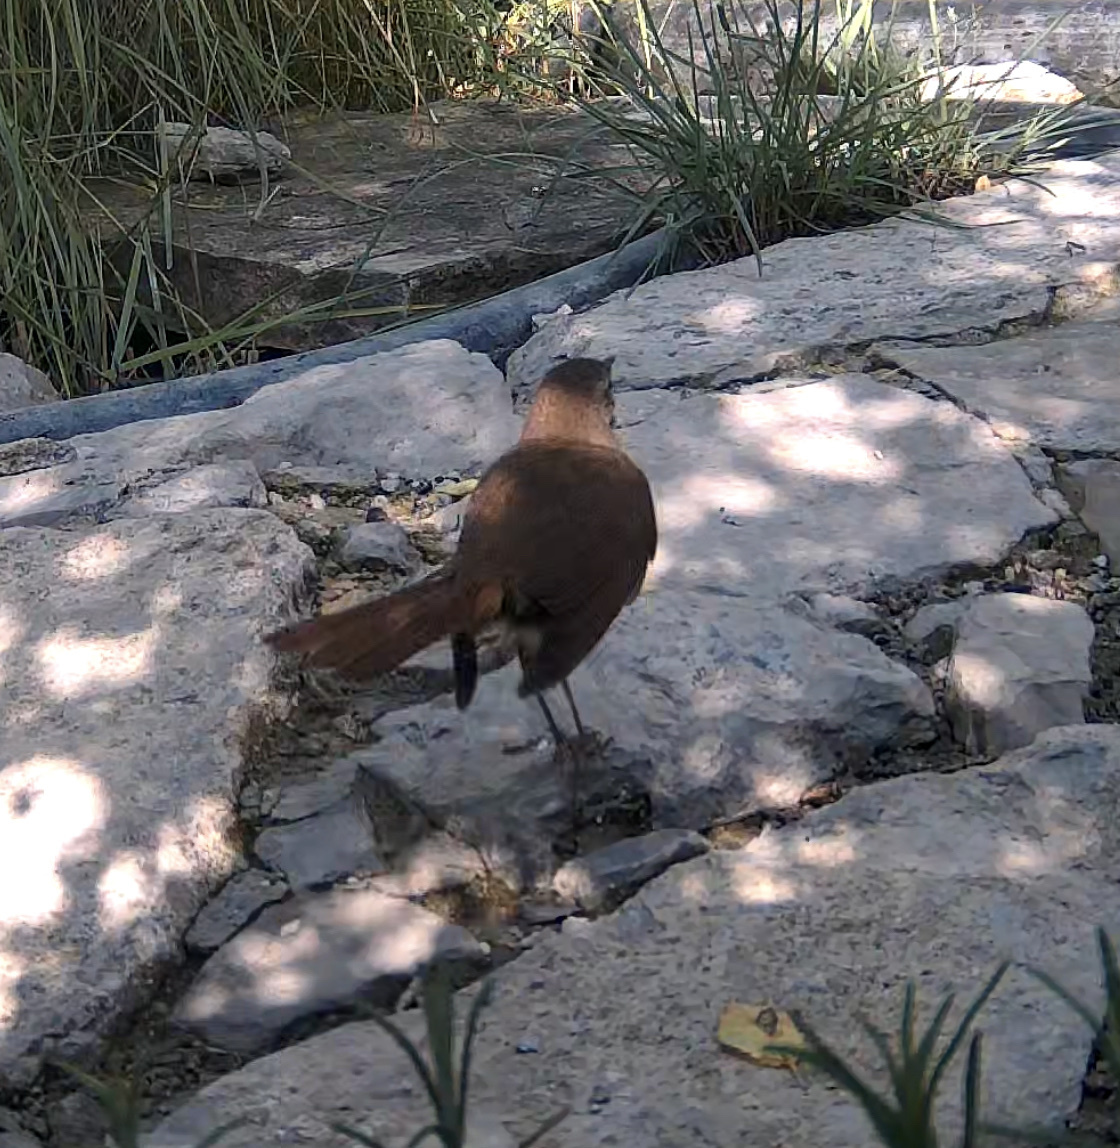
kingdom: Animalia
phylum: Chordata
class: Aves
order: Passeriformes
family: Muscicapidae
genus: Luscinia
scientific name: Luscinia megarhynchos
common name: Common nightingale
